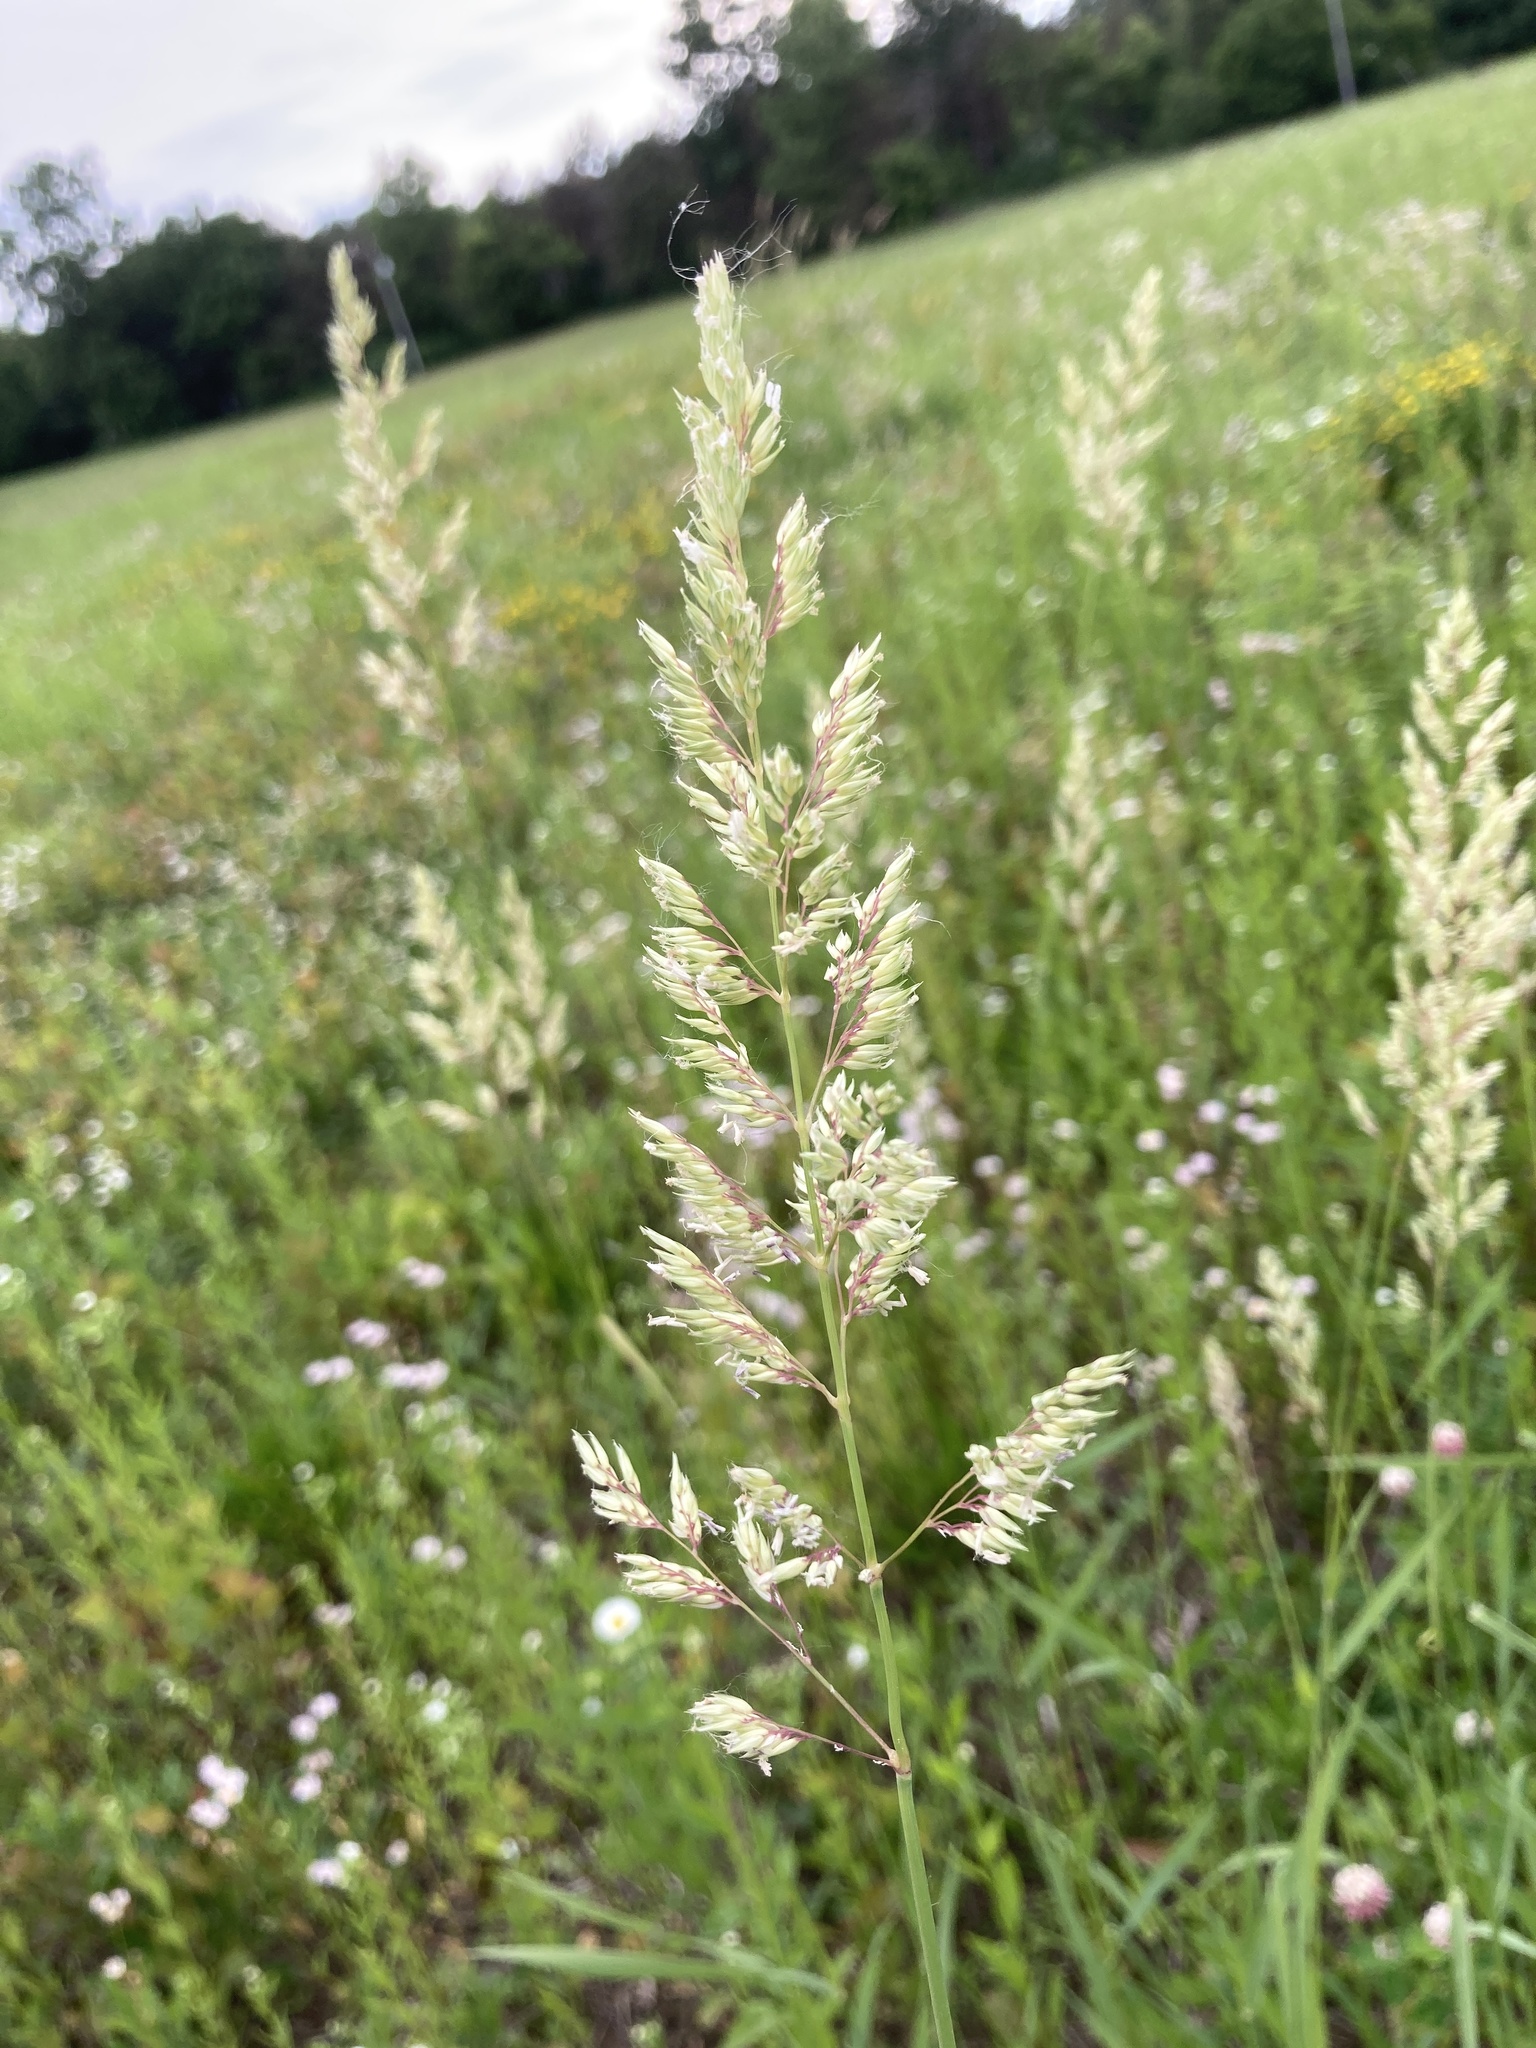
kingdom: Plantae
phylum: Tracheophyta
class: Liliopsida
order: Poales
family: Poaceae
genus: Phalaris
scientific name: Phalaris arundinacea
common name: Reed canary-grass
